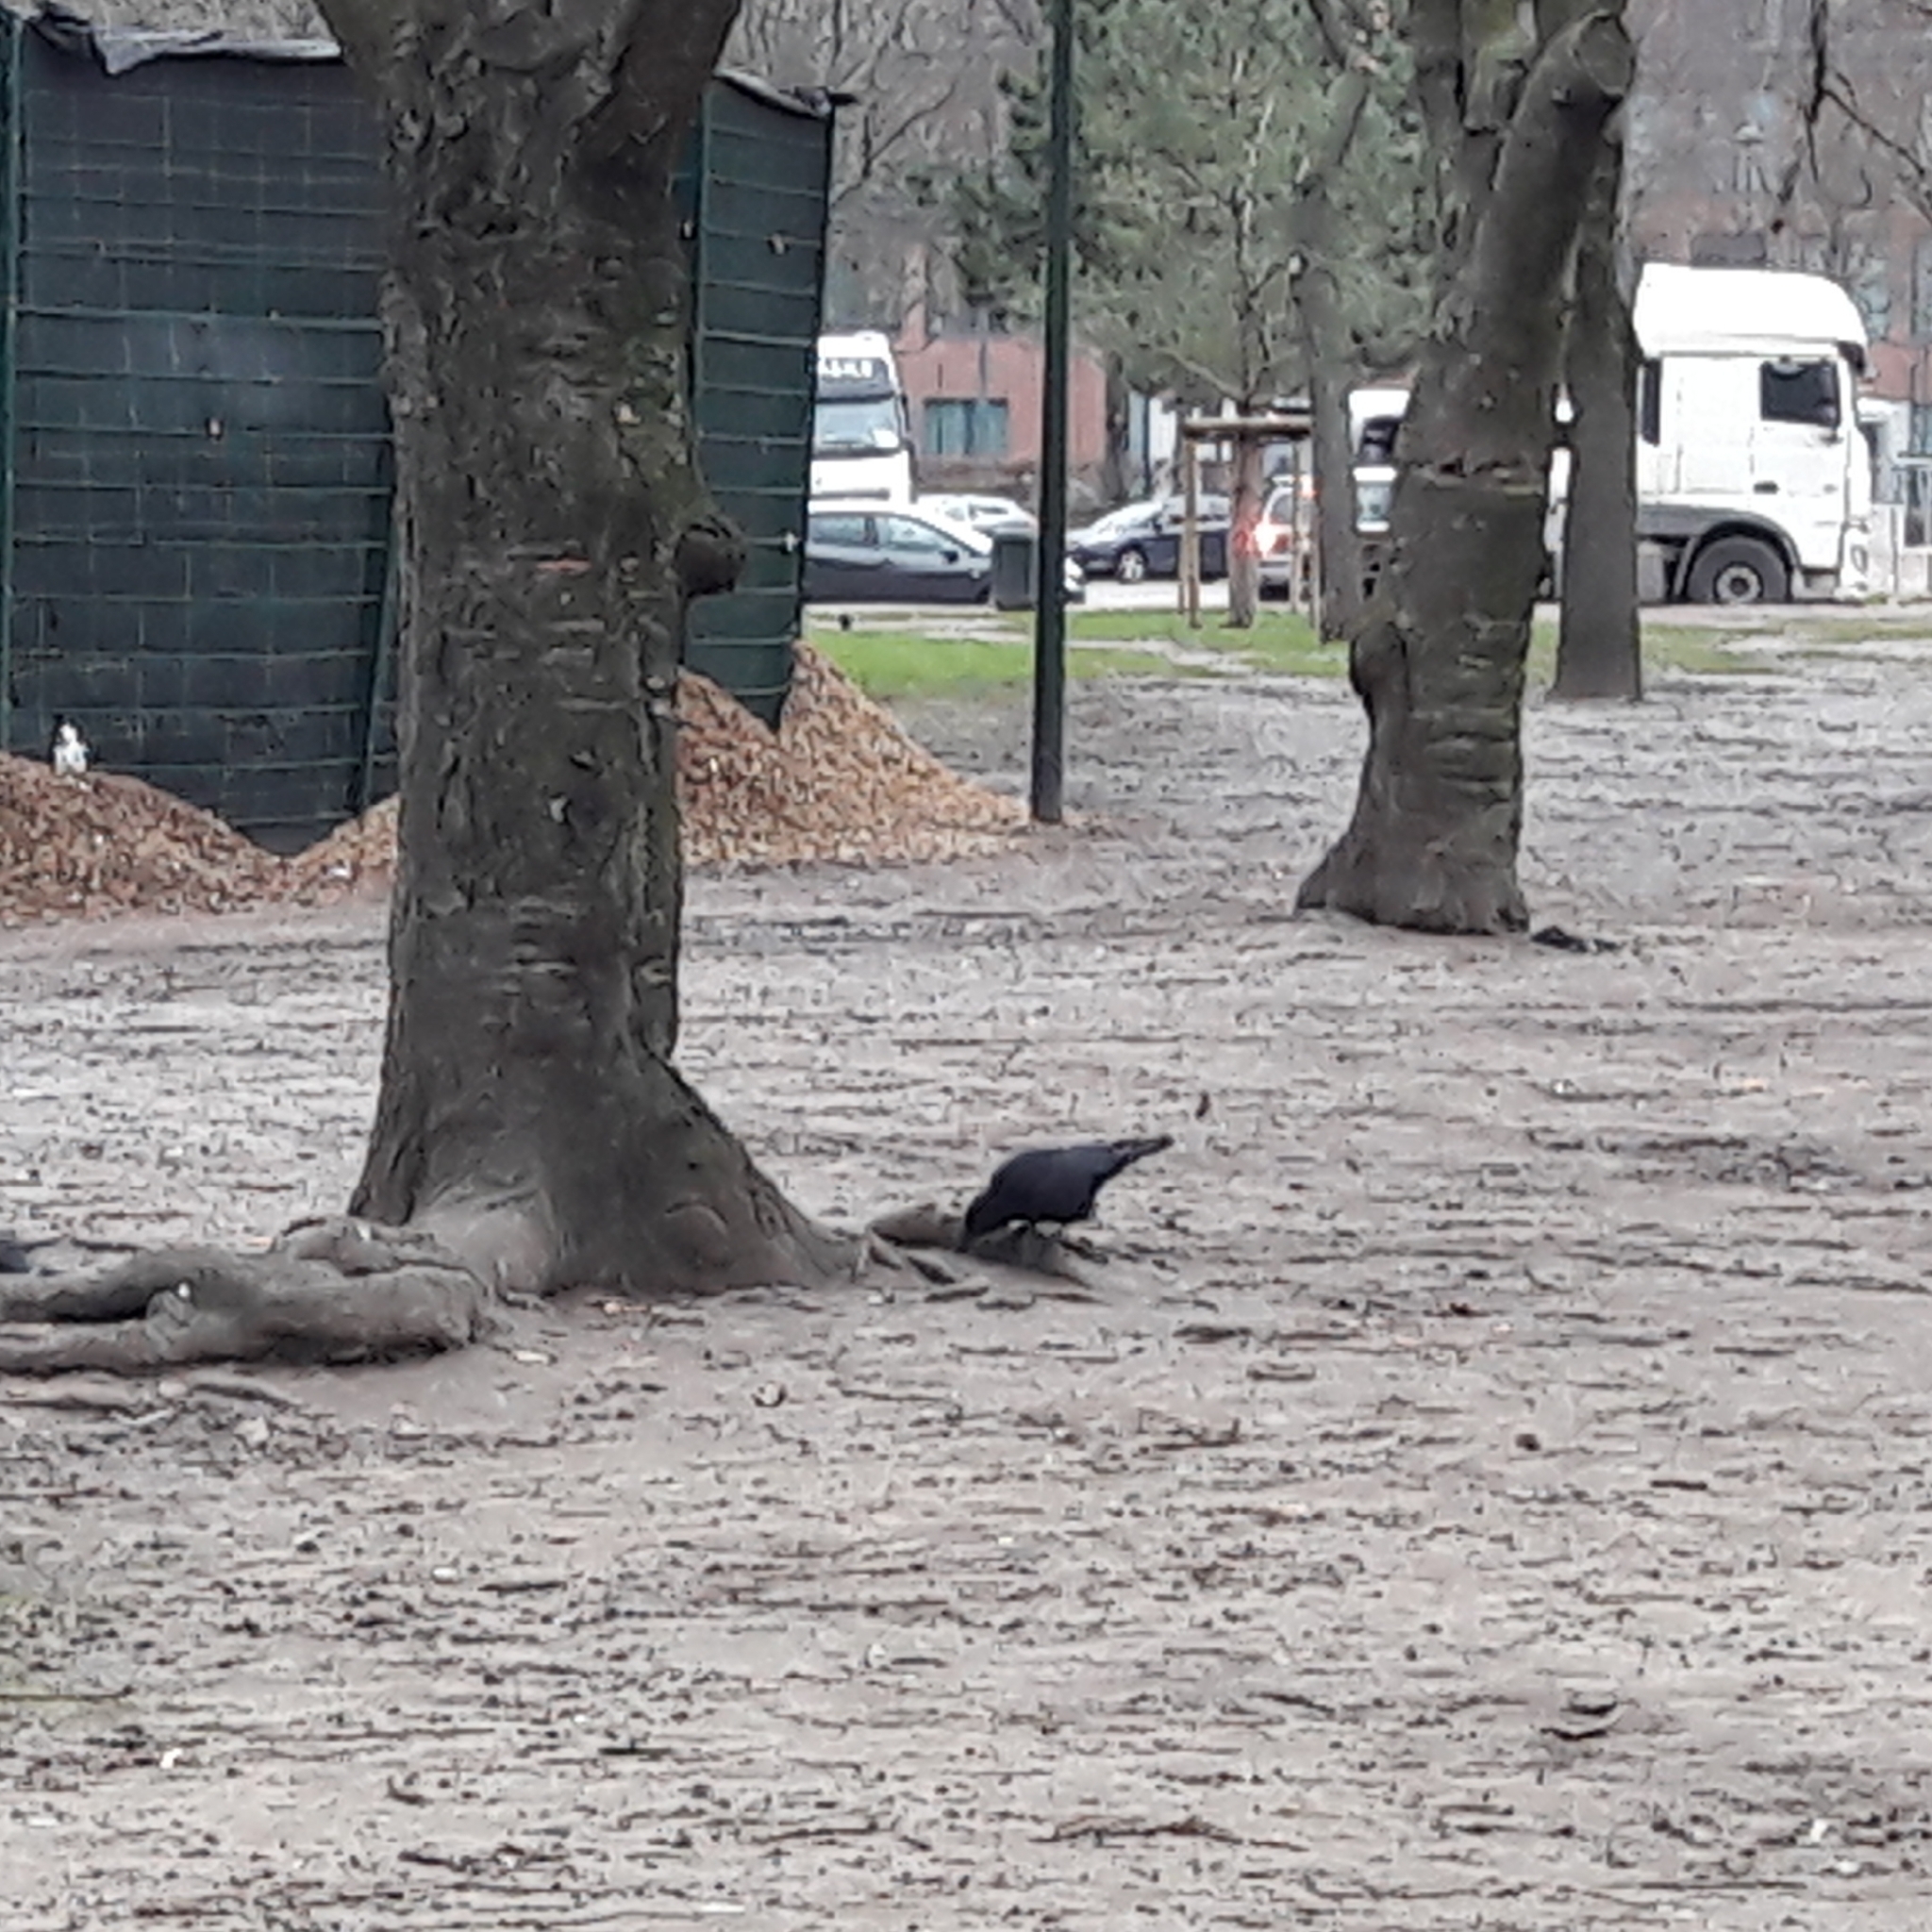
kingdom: Animalia
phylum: Chordata
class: Aves
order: Passeriformes
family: Corvidae
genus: Corvus
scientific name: Corvus corone
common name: Carrion crow
